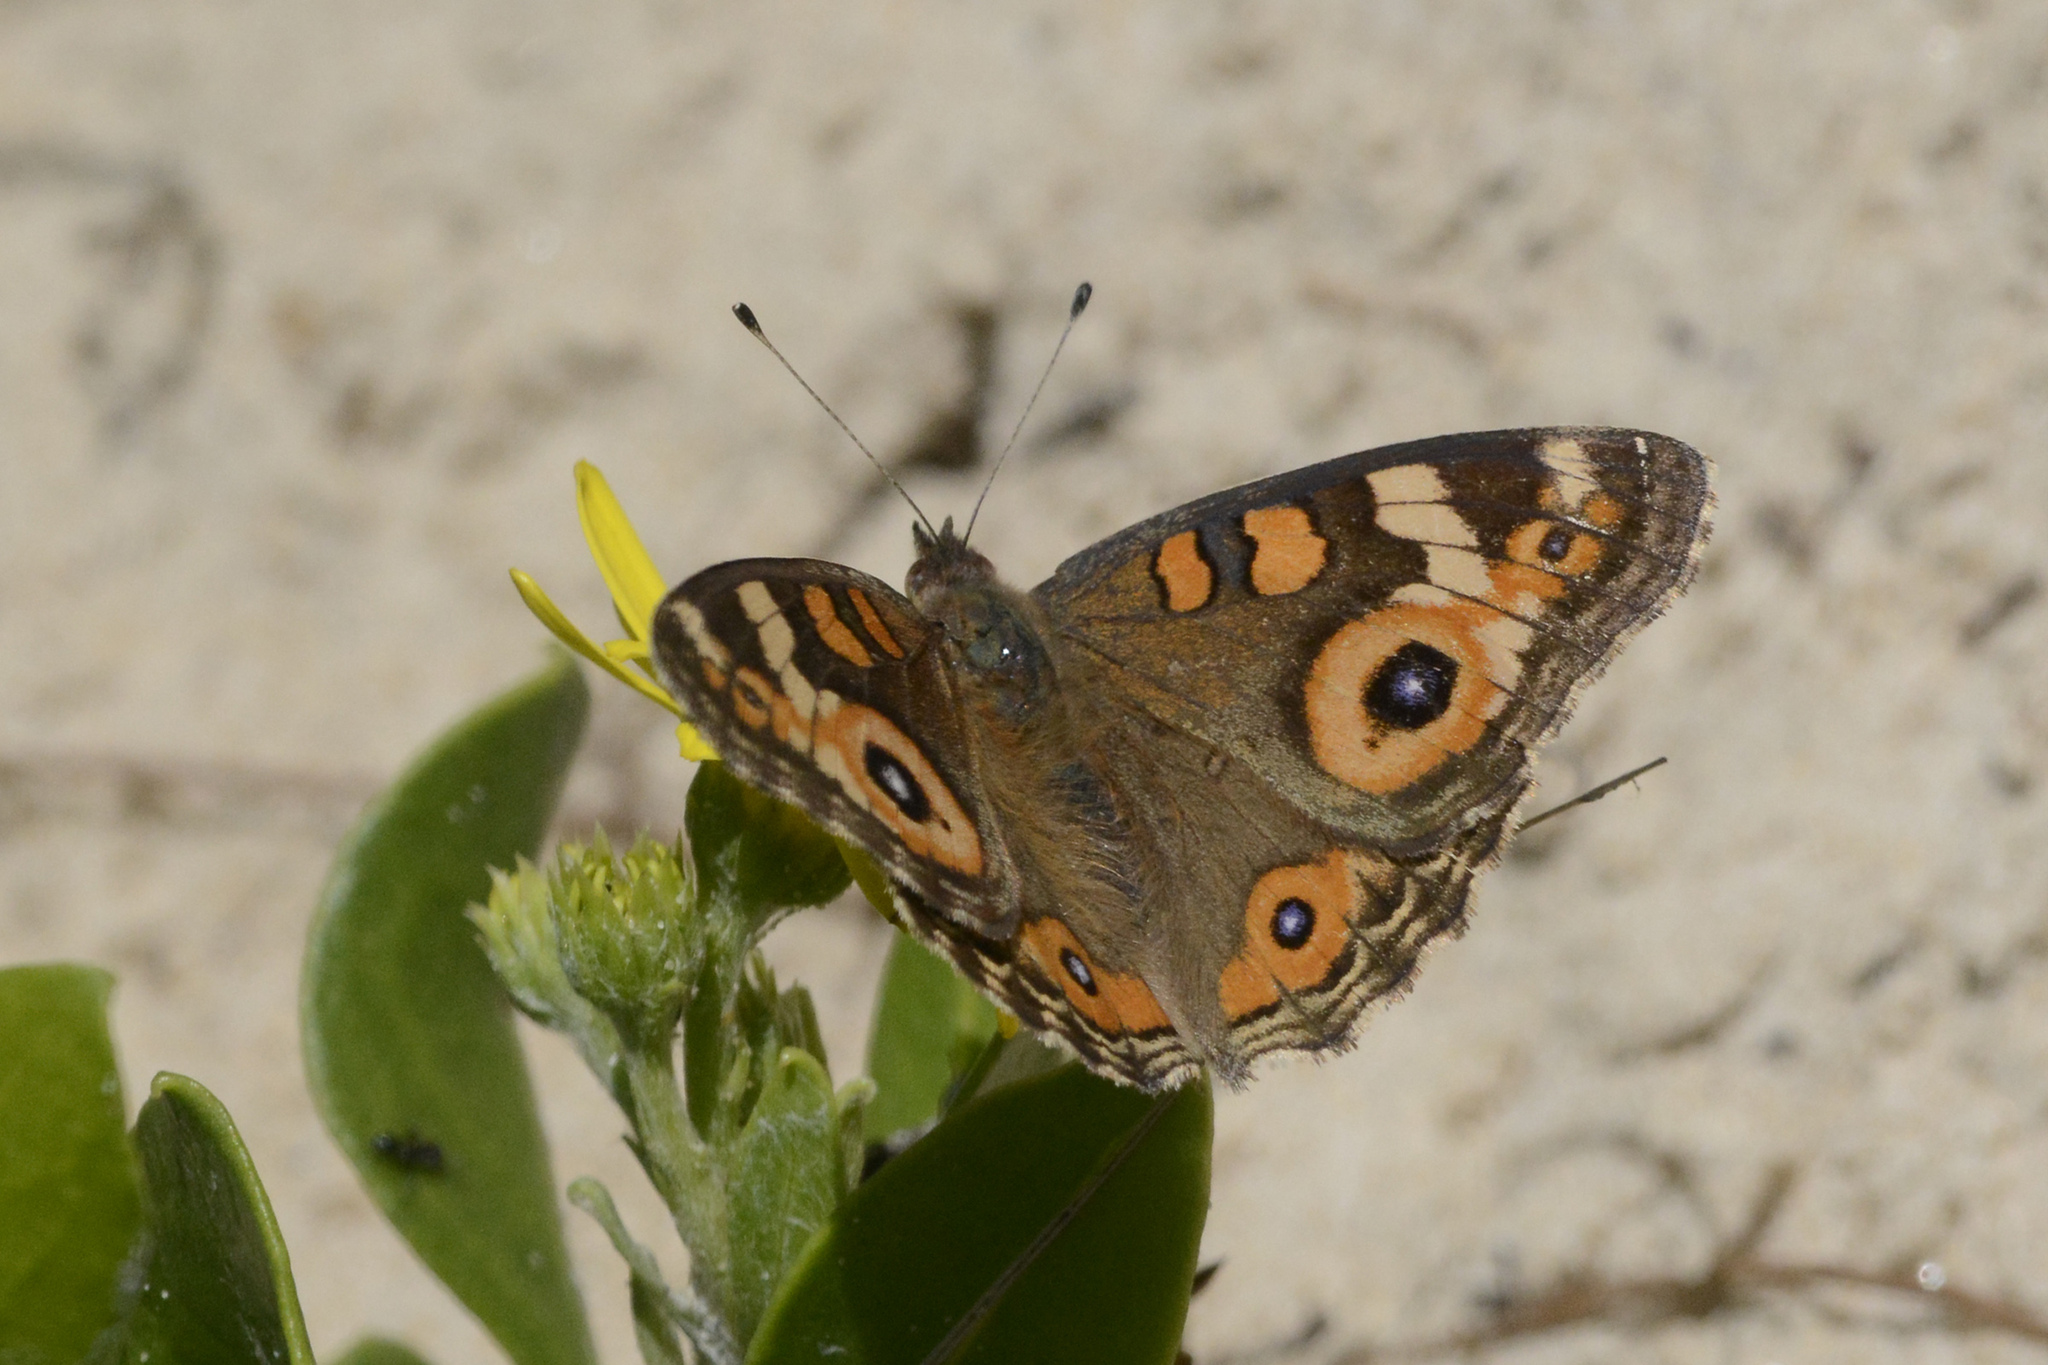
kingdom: Animalia
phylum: Arthropoda
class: Insecta
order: Lepidoptera
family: Nymphalidae
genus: Junonia
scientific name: Junonia villida
